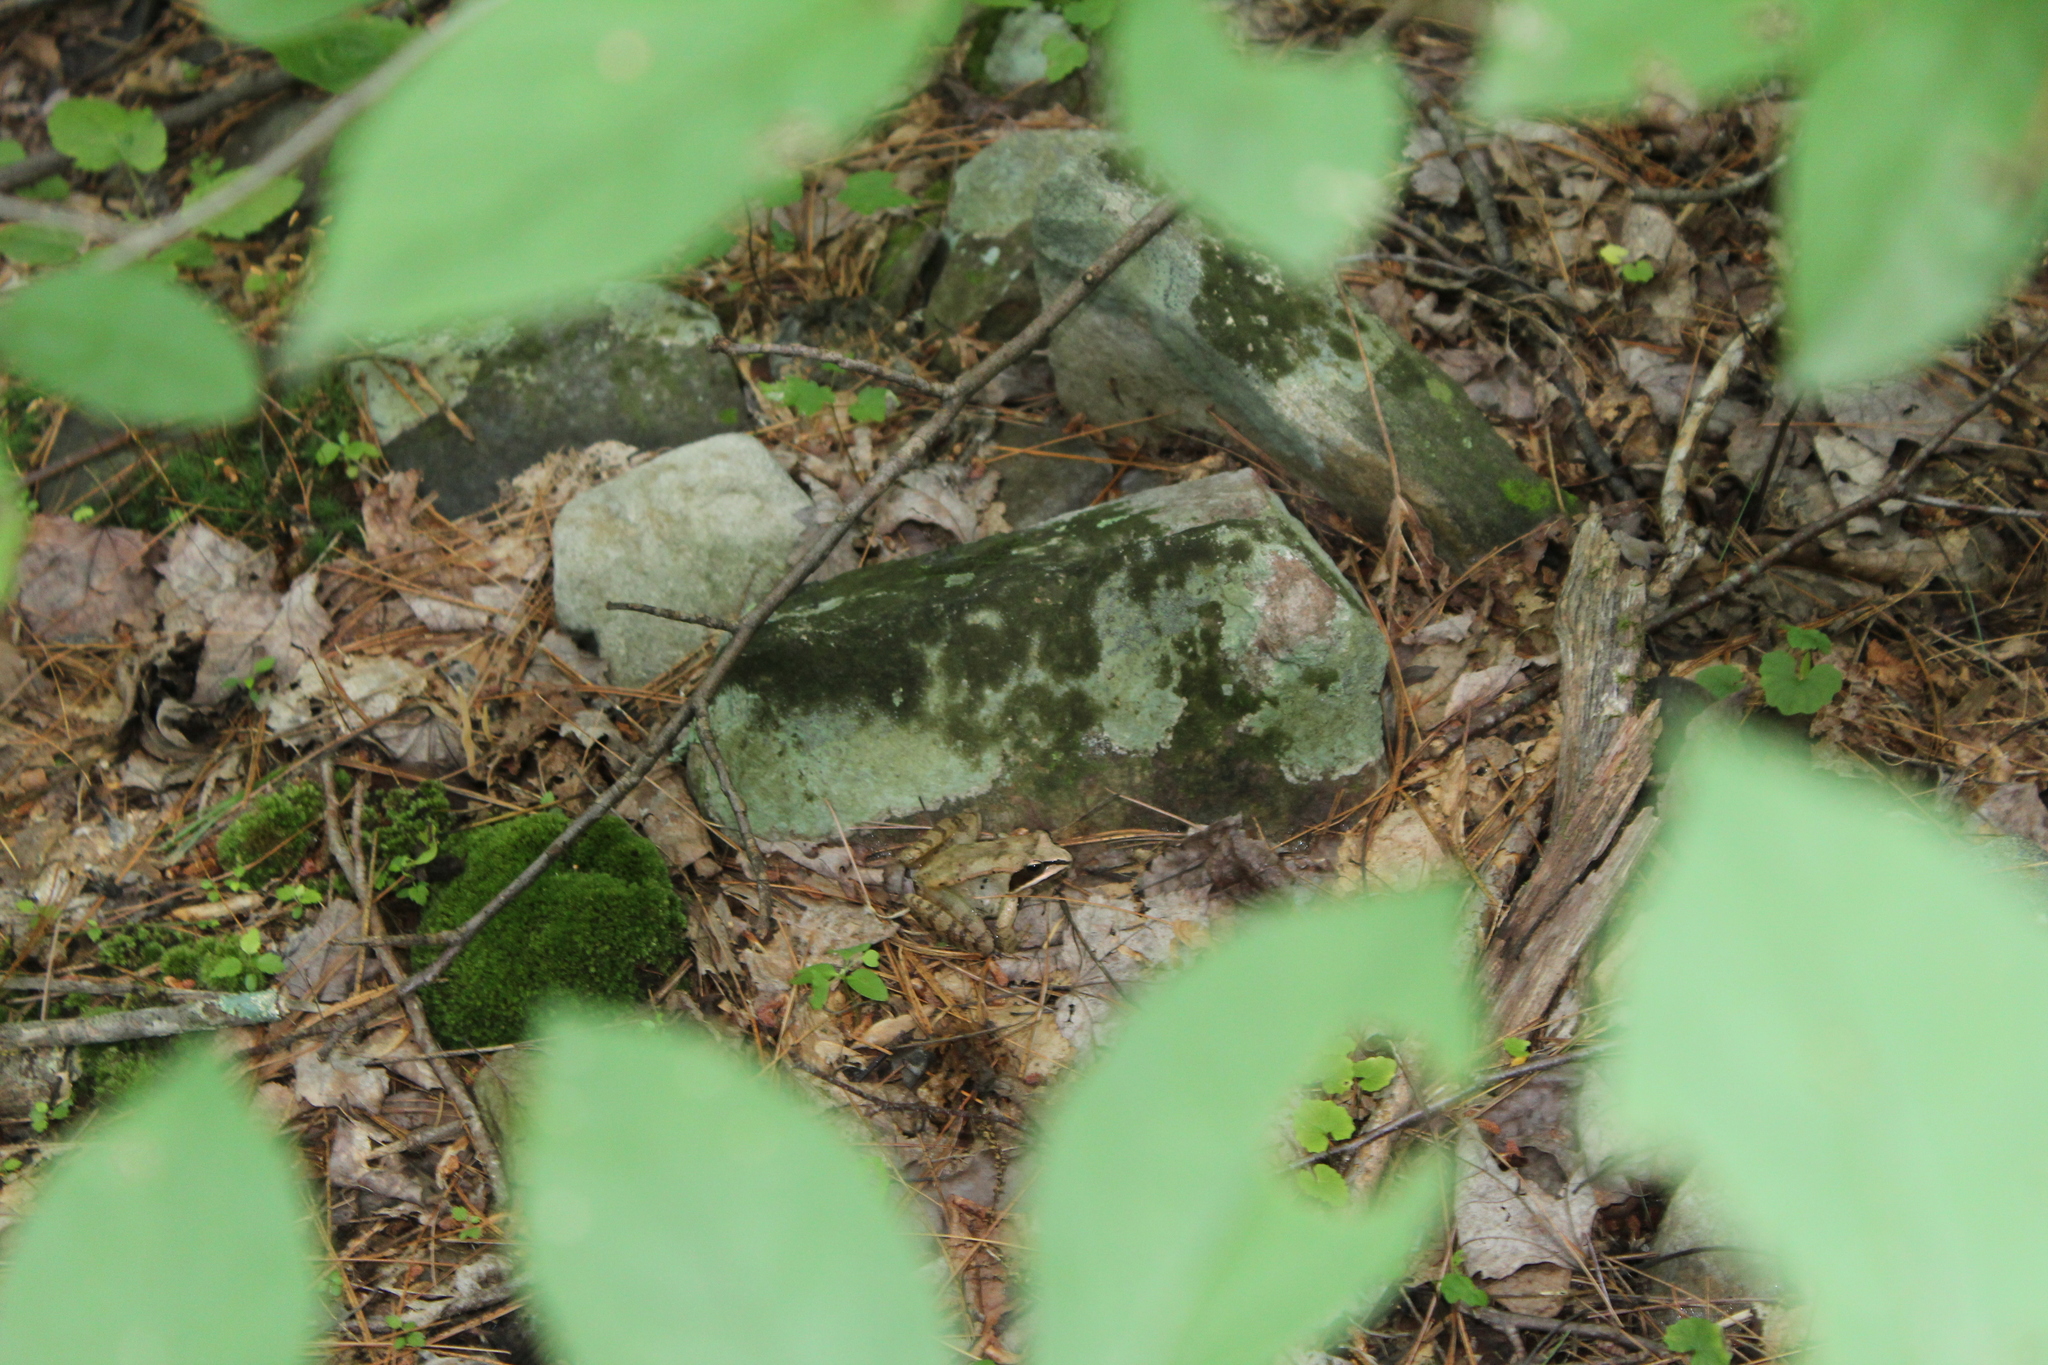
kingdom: Animalia
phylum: Chordata
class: Amphibia
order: Anura
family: Ranidae
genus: Lithobates
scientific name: Lithobates sylvaticus
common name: Wood frog
